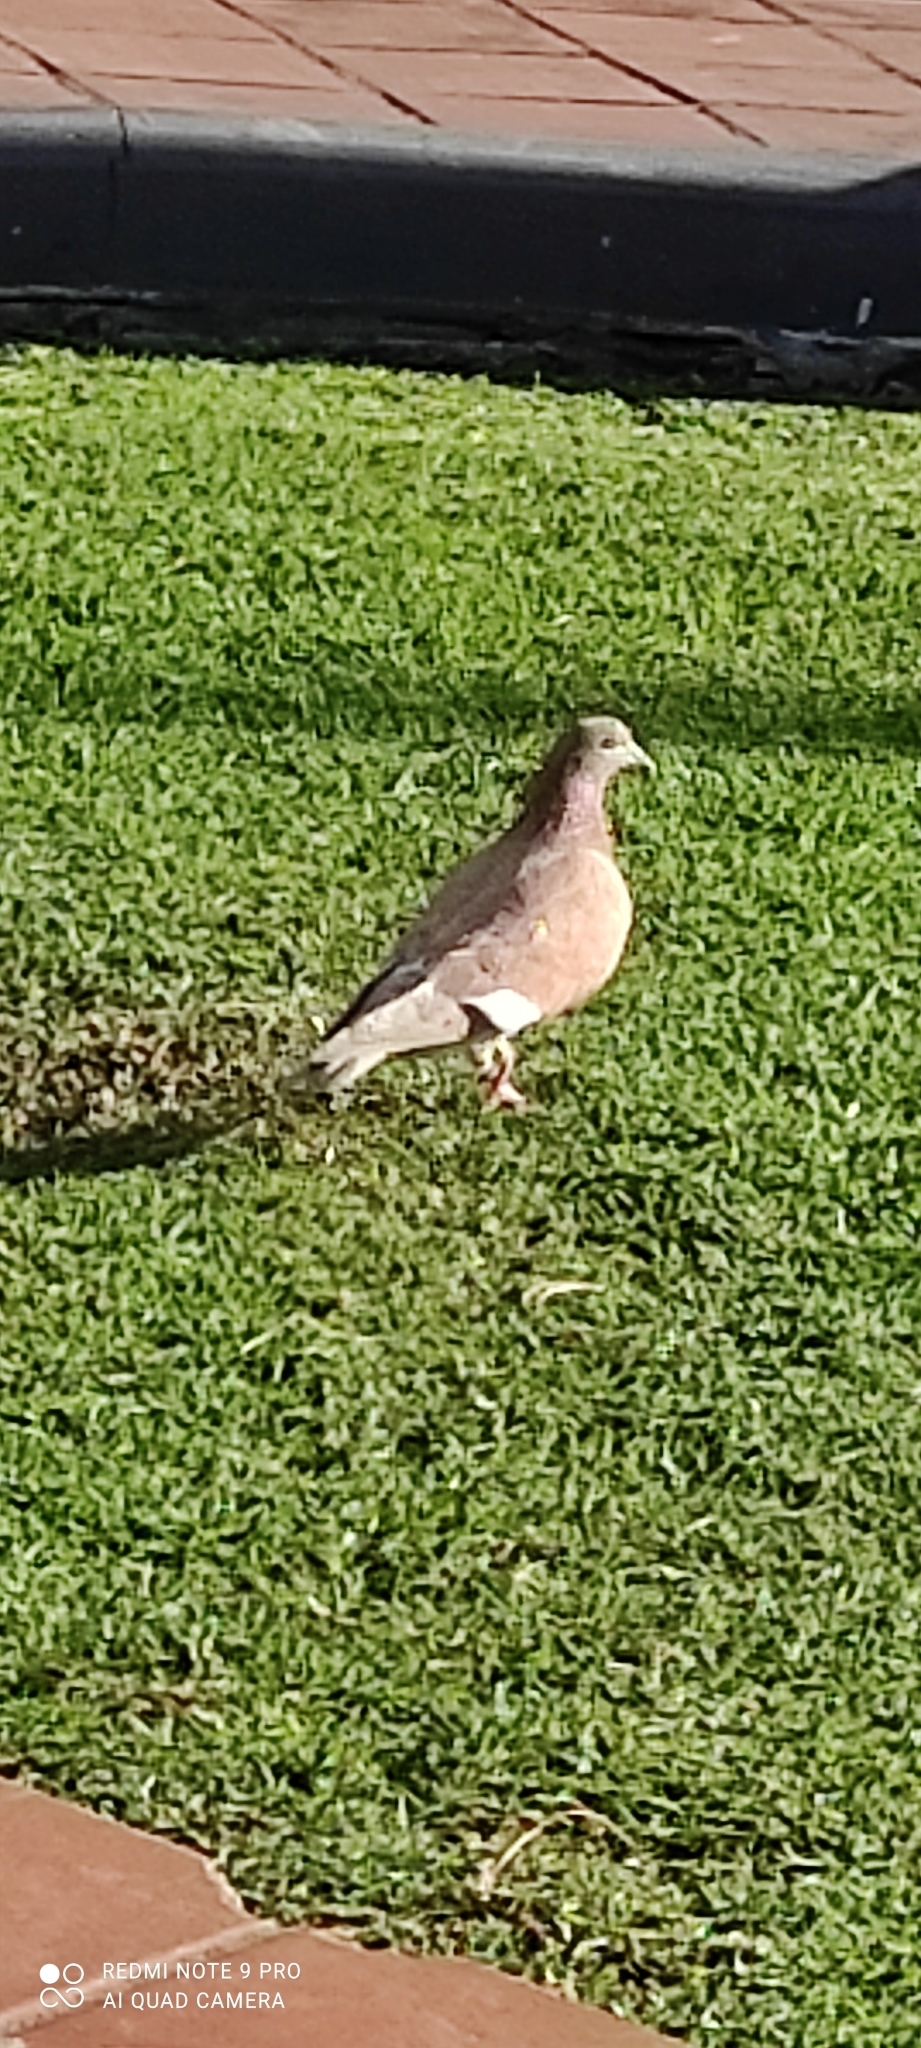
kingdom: Animalia
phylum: Chordata
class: Aves
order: Columbiformes
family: Columbidae
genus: Columba
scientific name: Columba livia
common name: Rock pigeon
